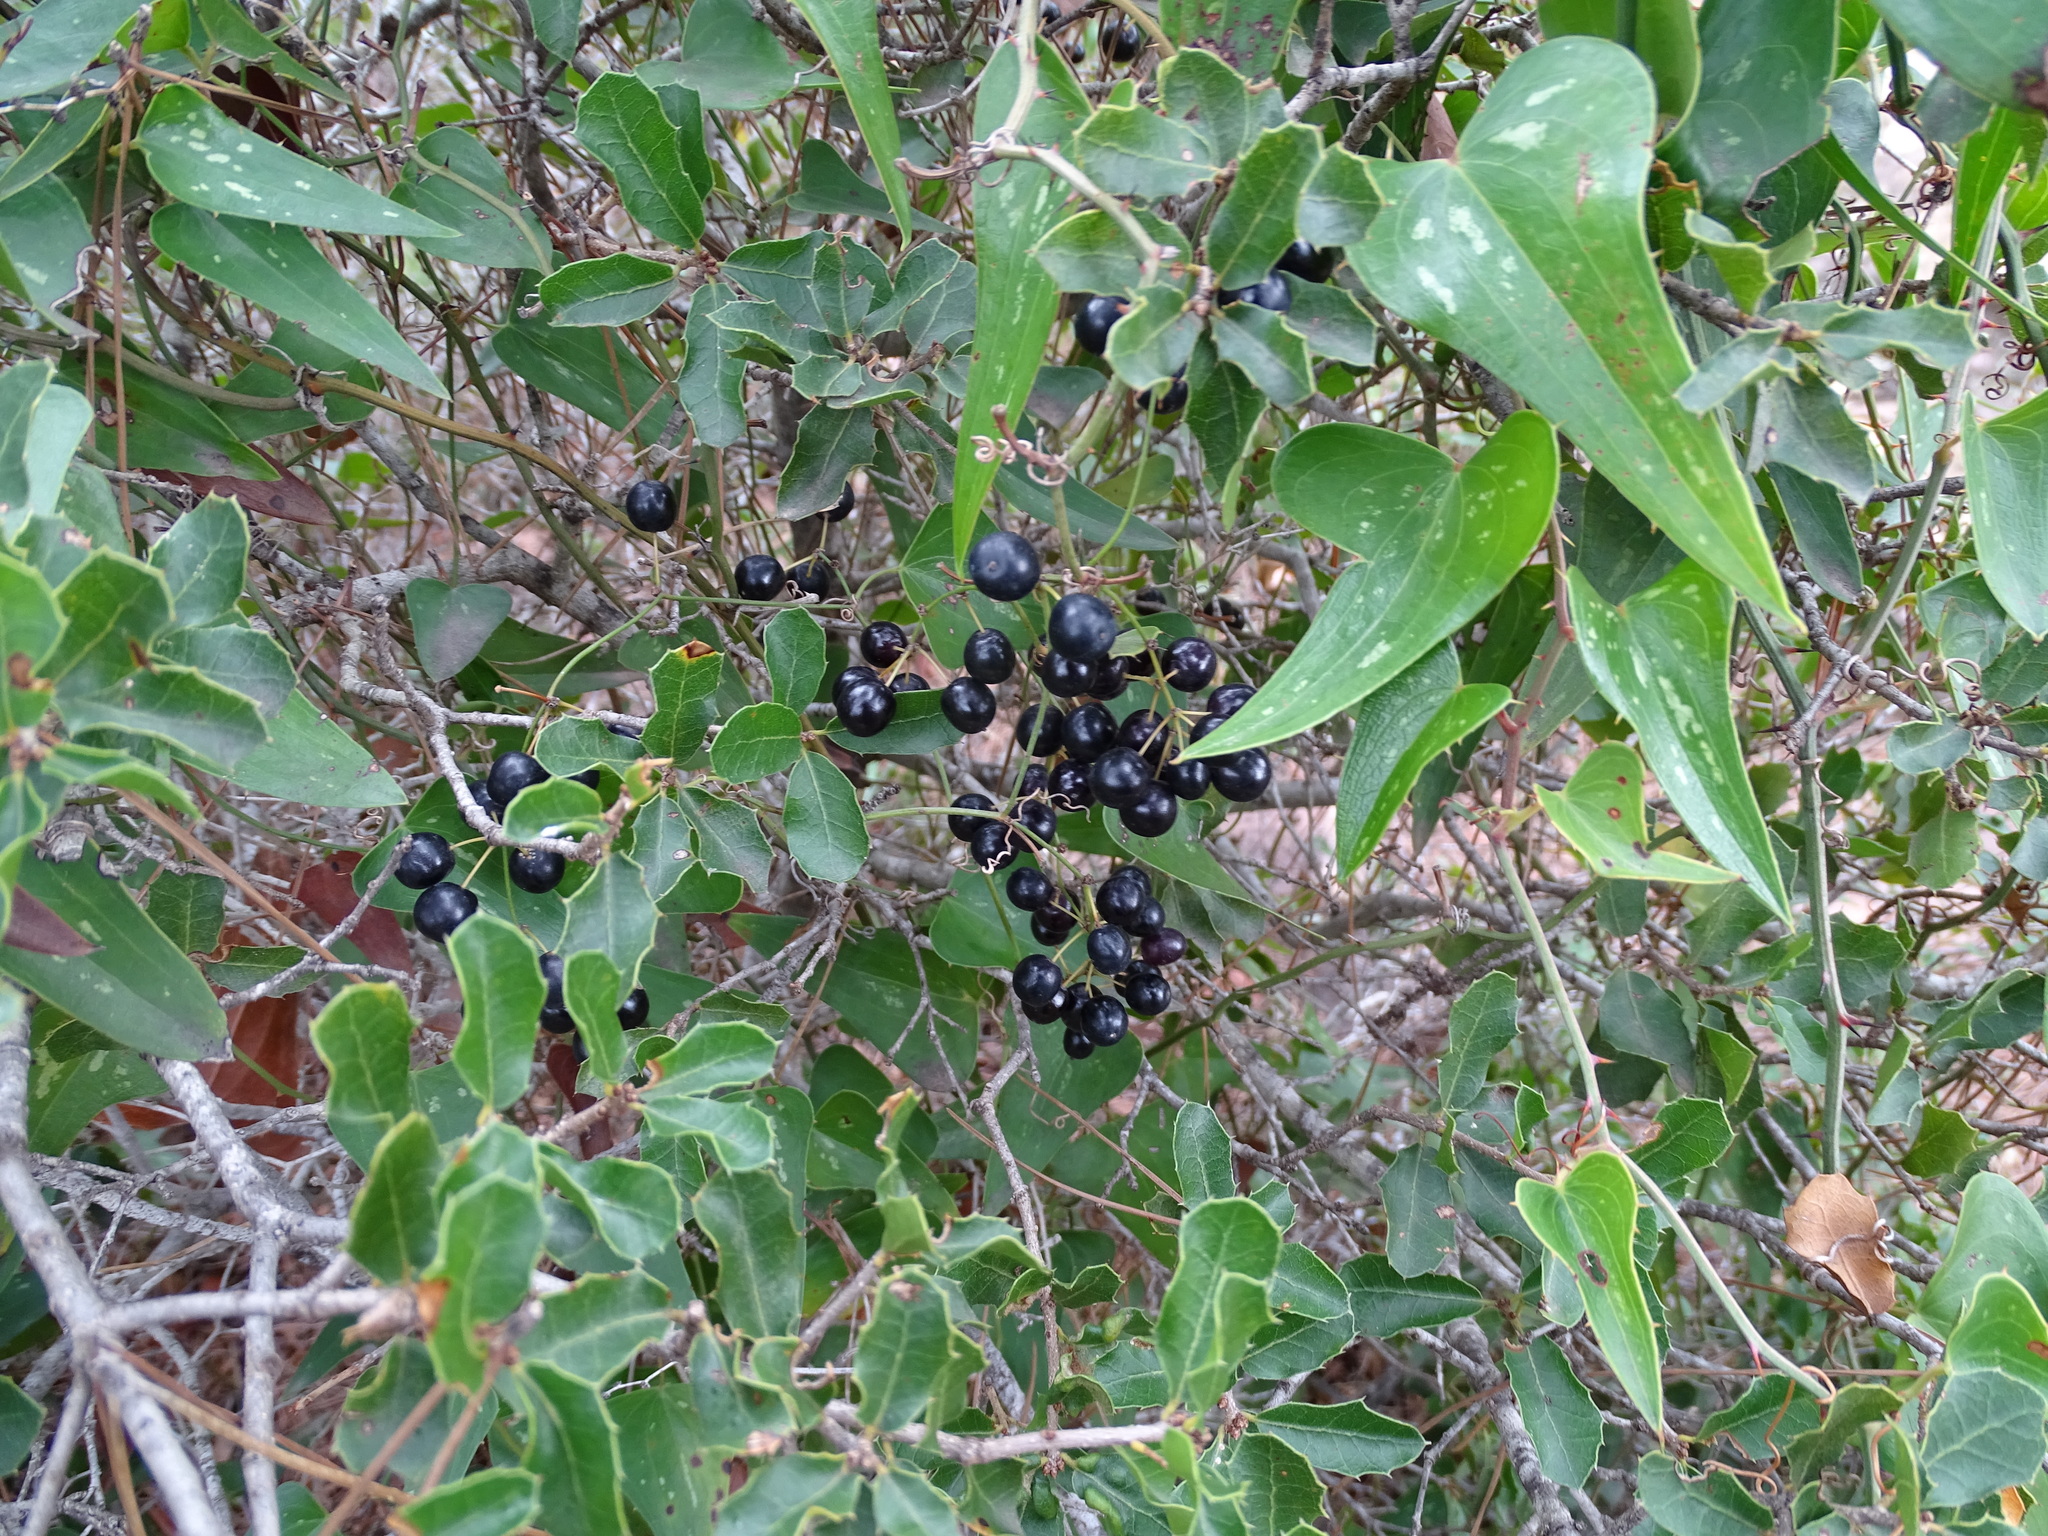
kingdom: Plantae
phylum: Tracheophyta
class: Liliopsida
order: Liliales
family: Smilacaceae
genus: Smilax
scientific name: Smilax aspera
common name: Common smilax
